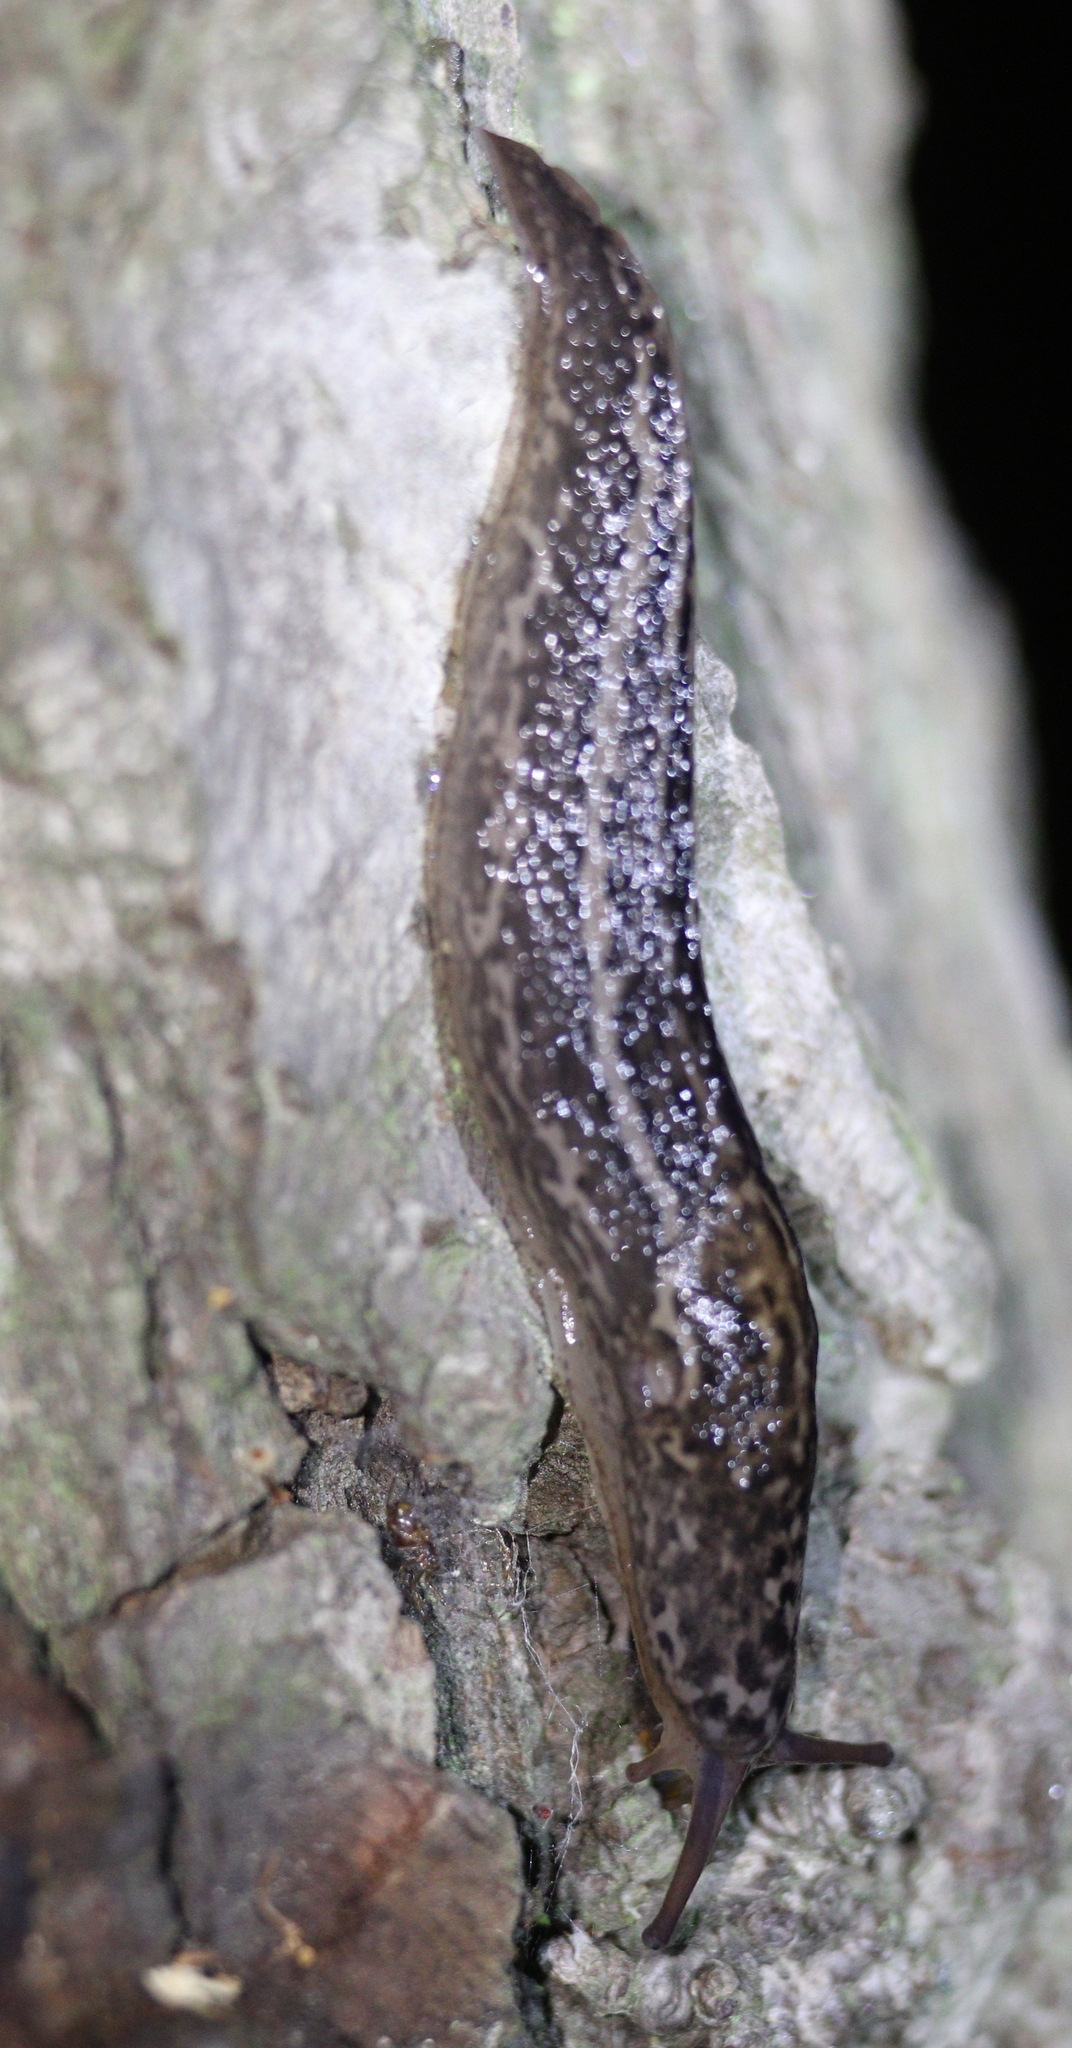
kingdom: Animalia
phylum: Mollusca
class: Gastropoda
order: Stylommatophora
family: Limacidae
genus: Limax
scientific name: Limax maximus
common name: Great grey slug
